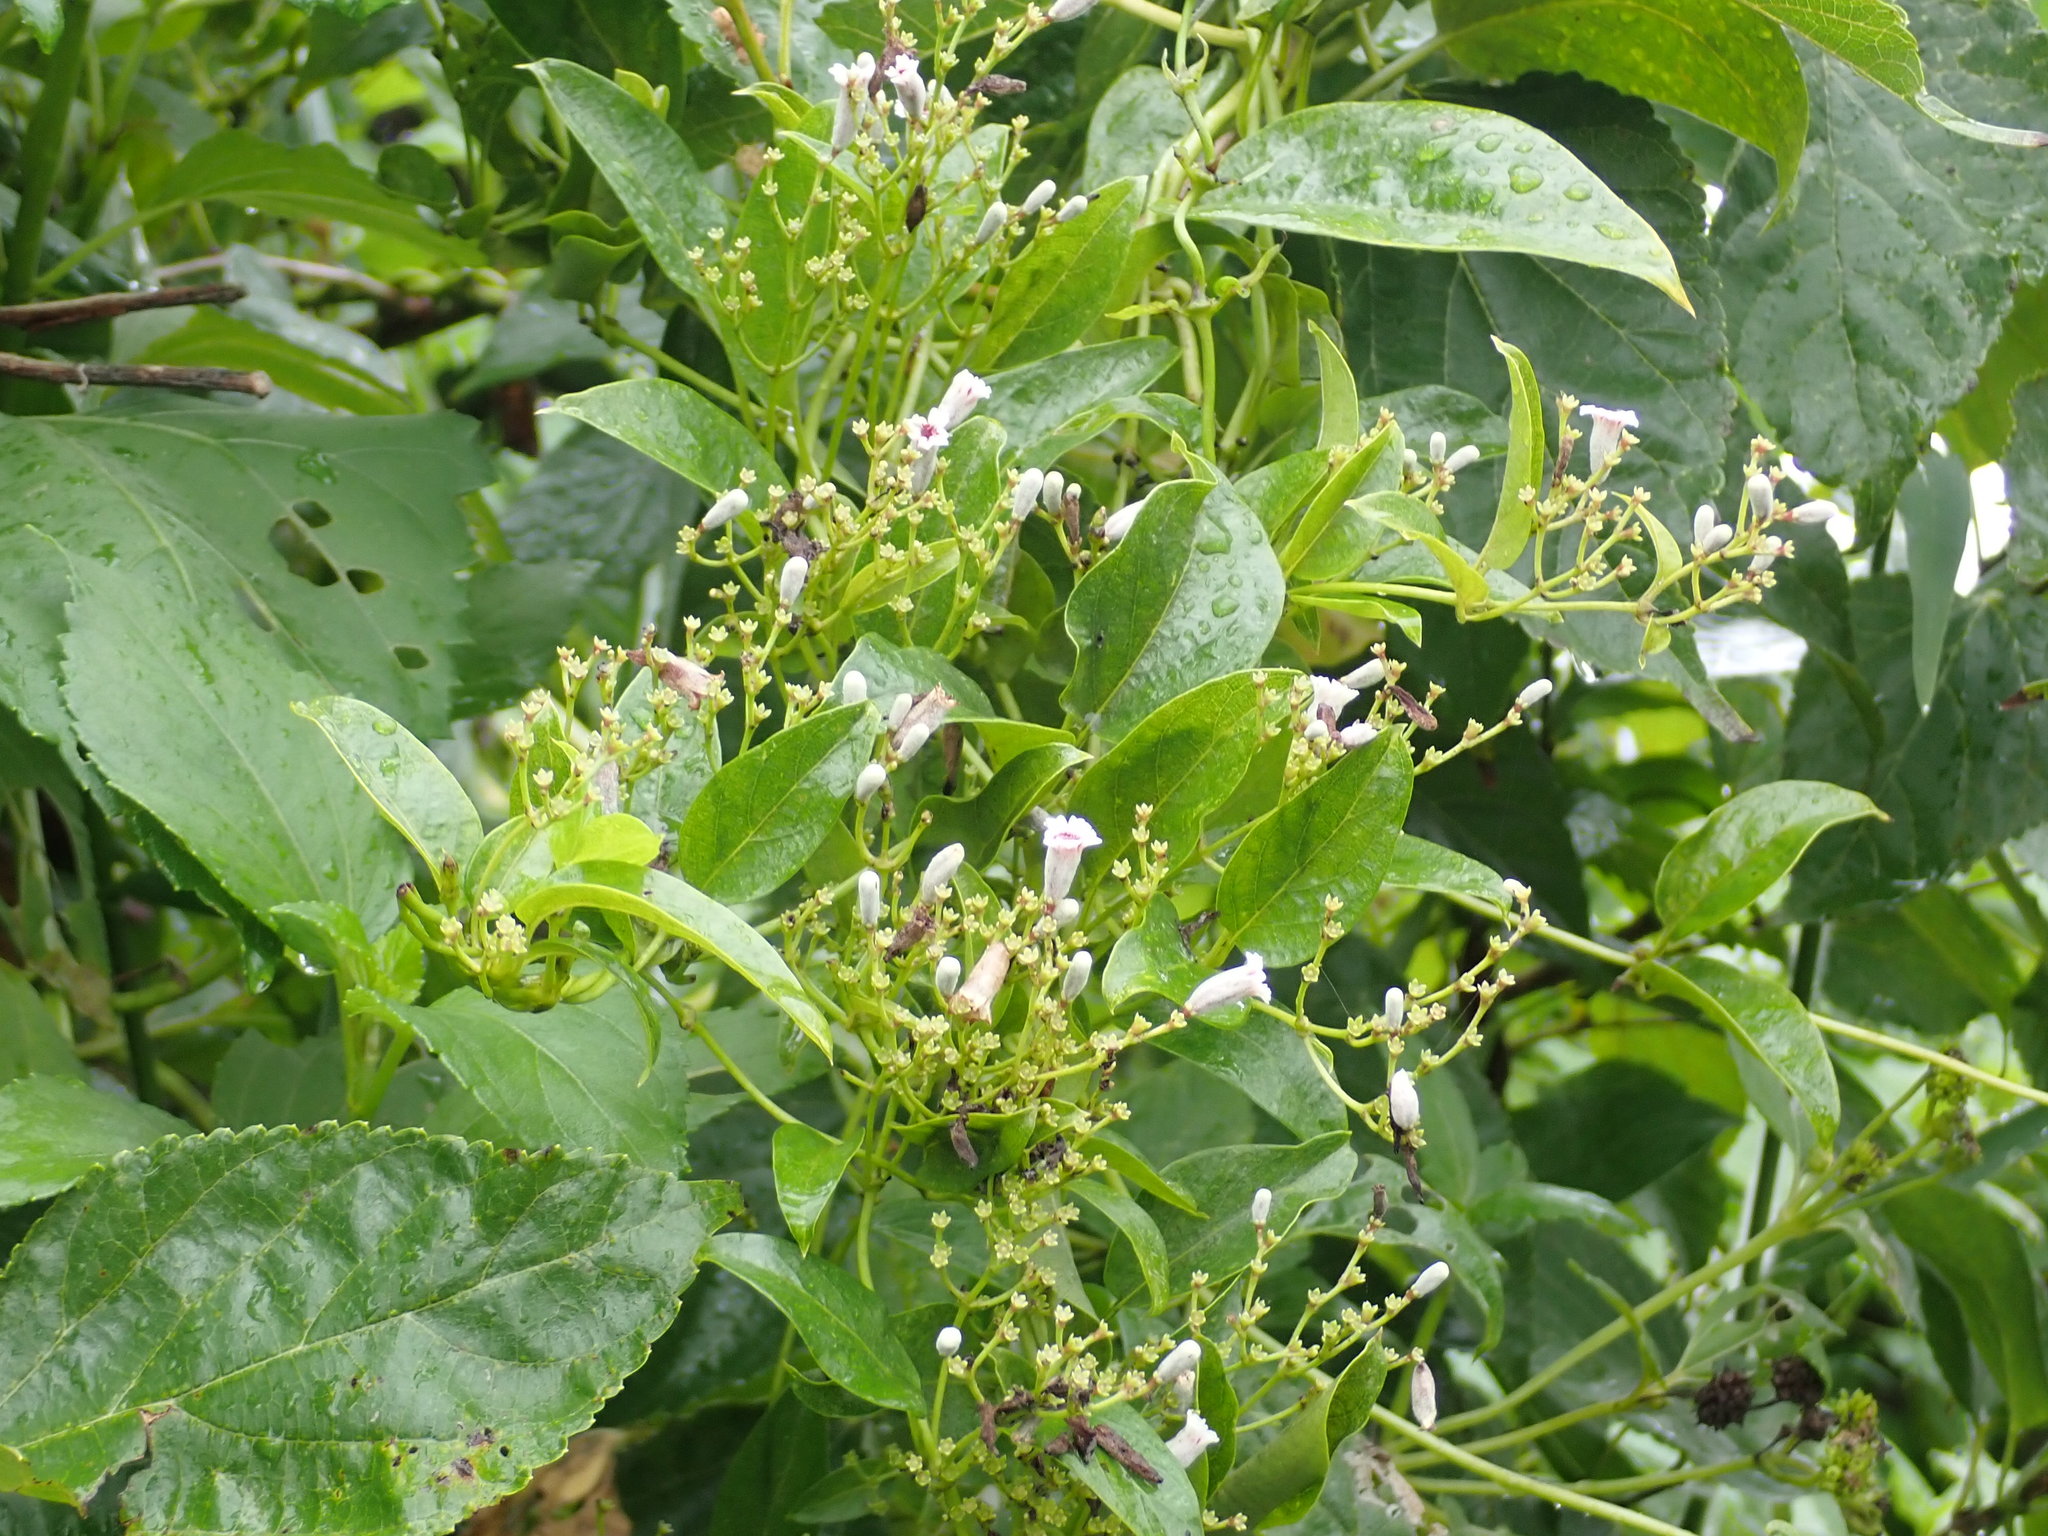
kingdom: Plantae
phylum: Tracheophyta
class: Magnoliopsida
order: Gentianales
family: Rubiaceae
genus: Paederia
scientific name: Paederia foetida
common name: Stinkvine
